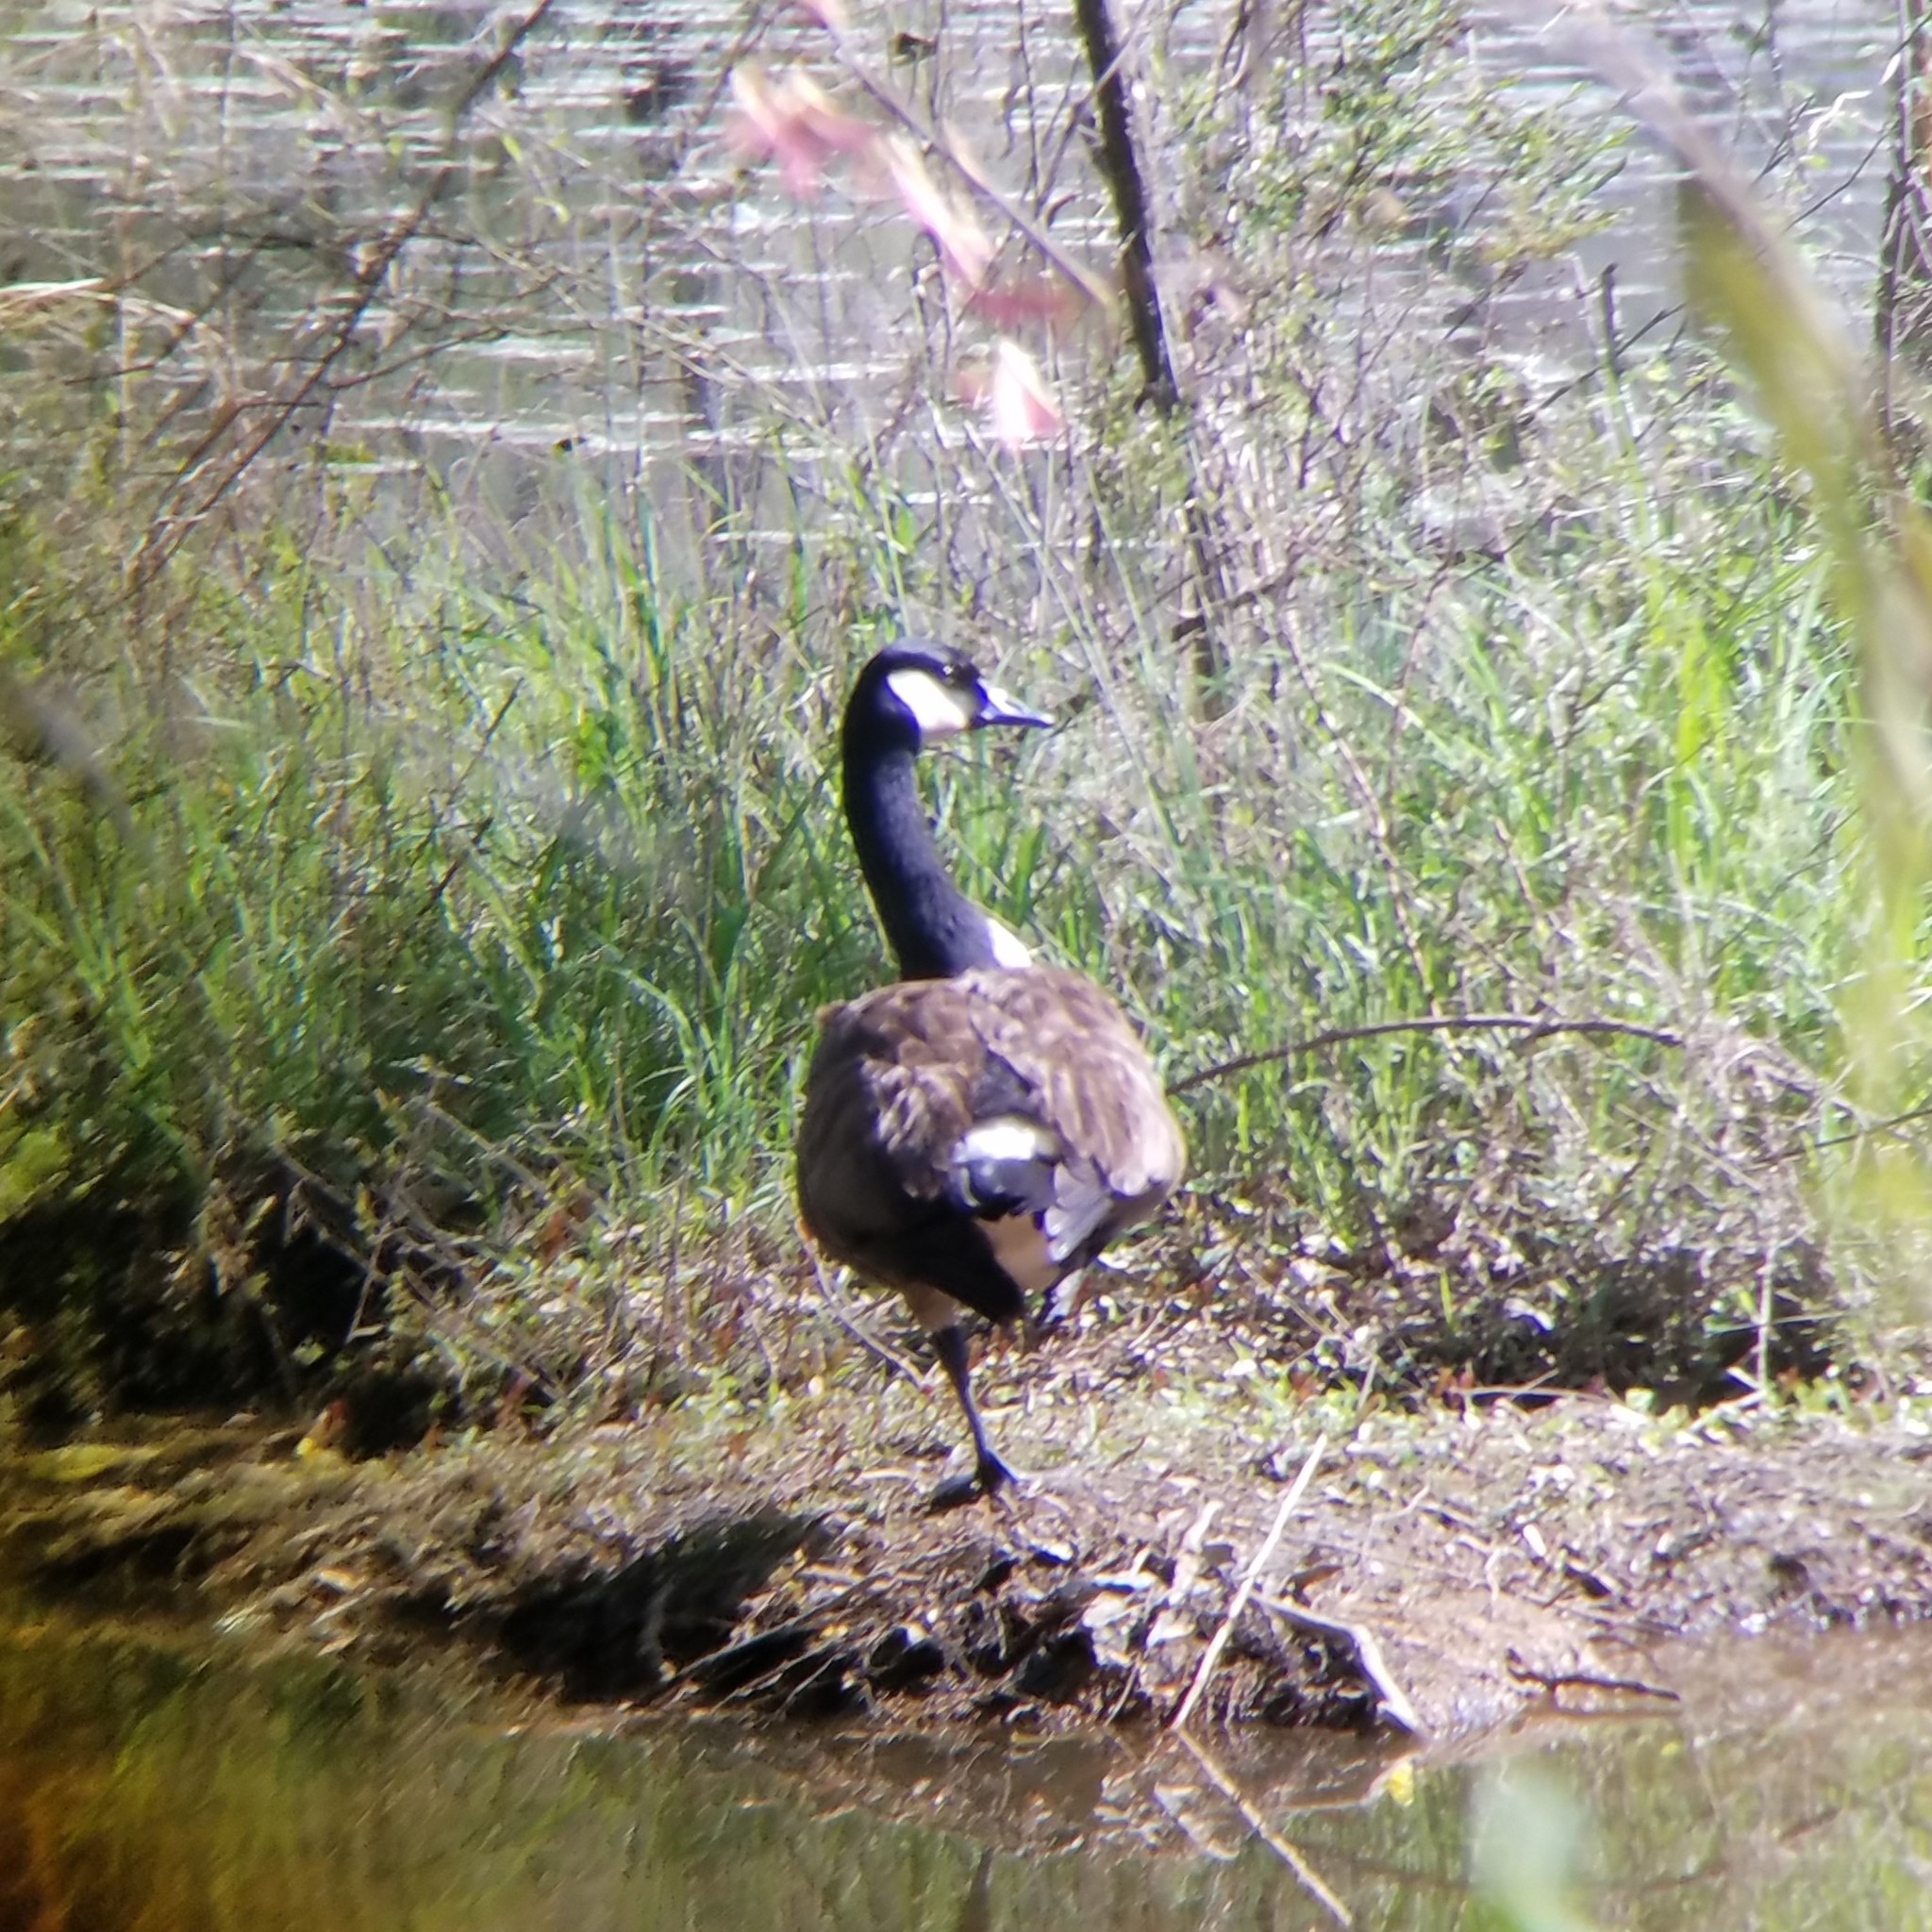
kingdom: Animalia
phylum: Chordata
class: Aves
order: Anseriformes
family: Anatidae
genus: Branta
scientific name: Branta canadensis
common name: Canada goose
